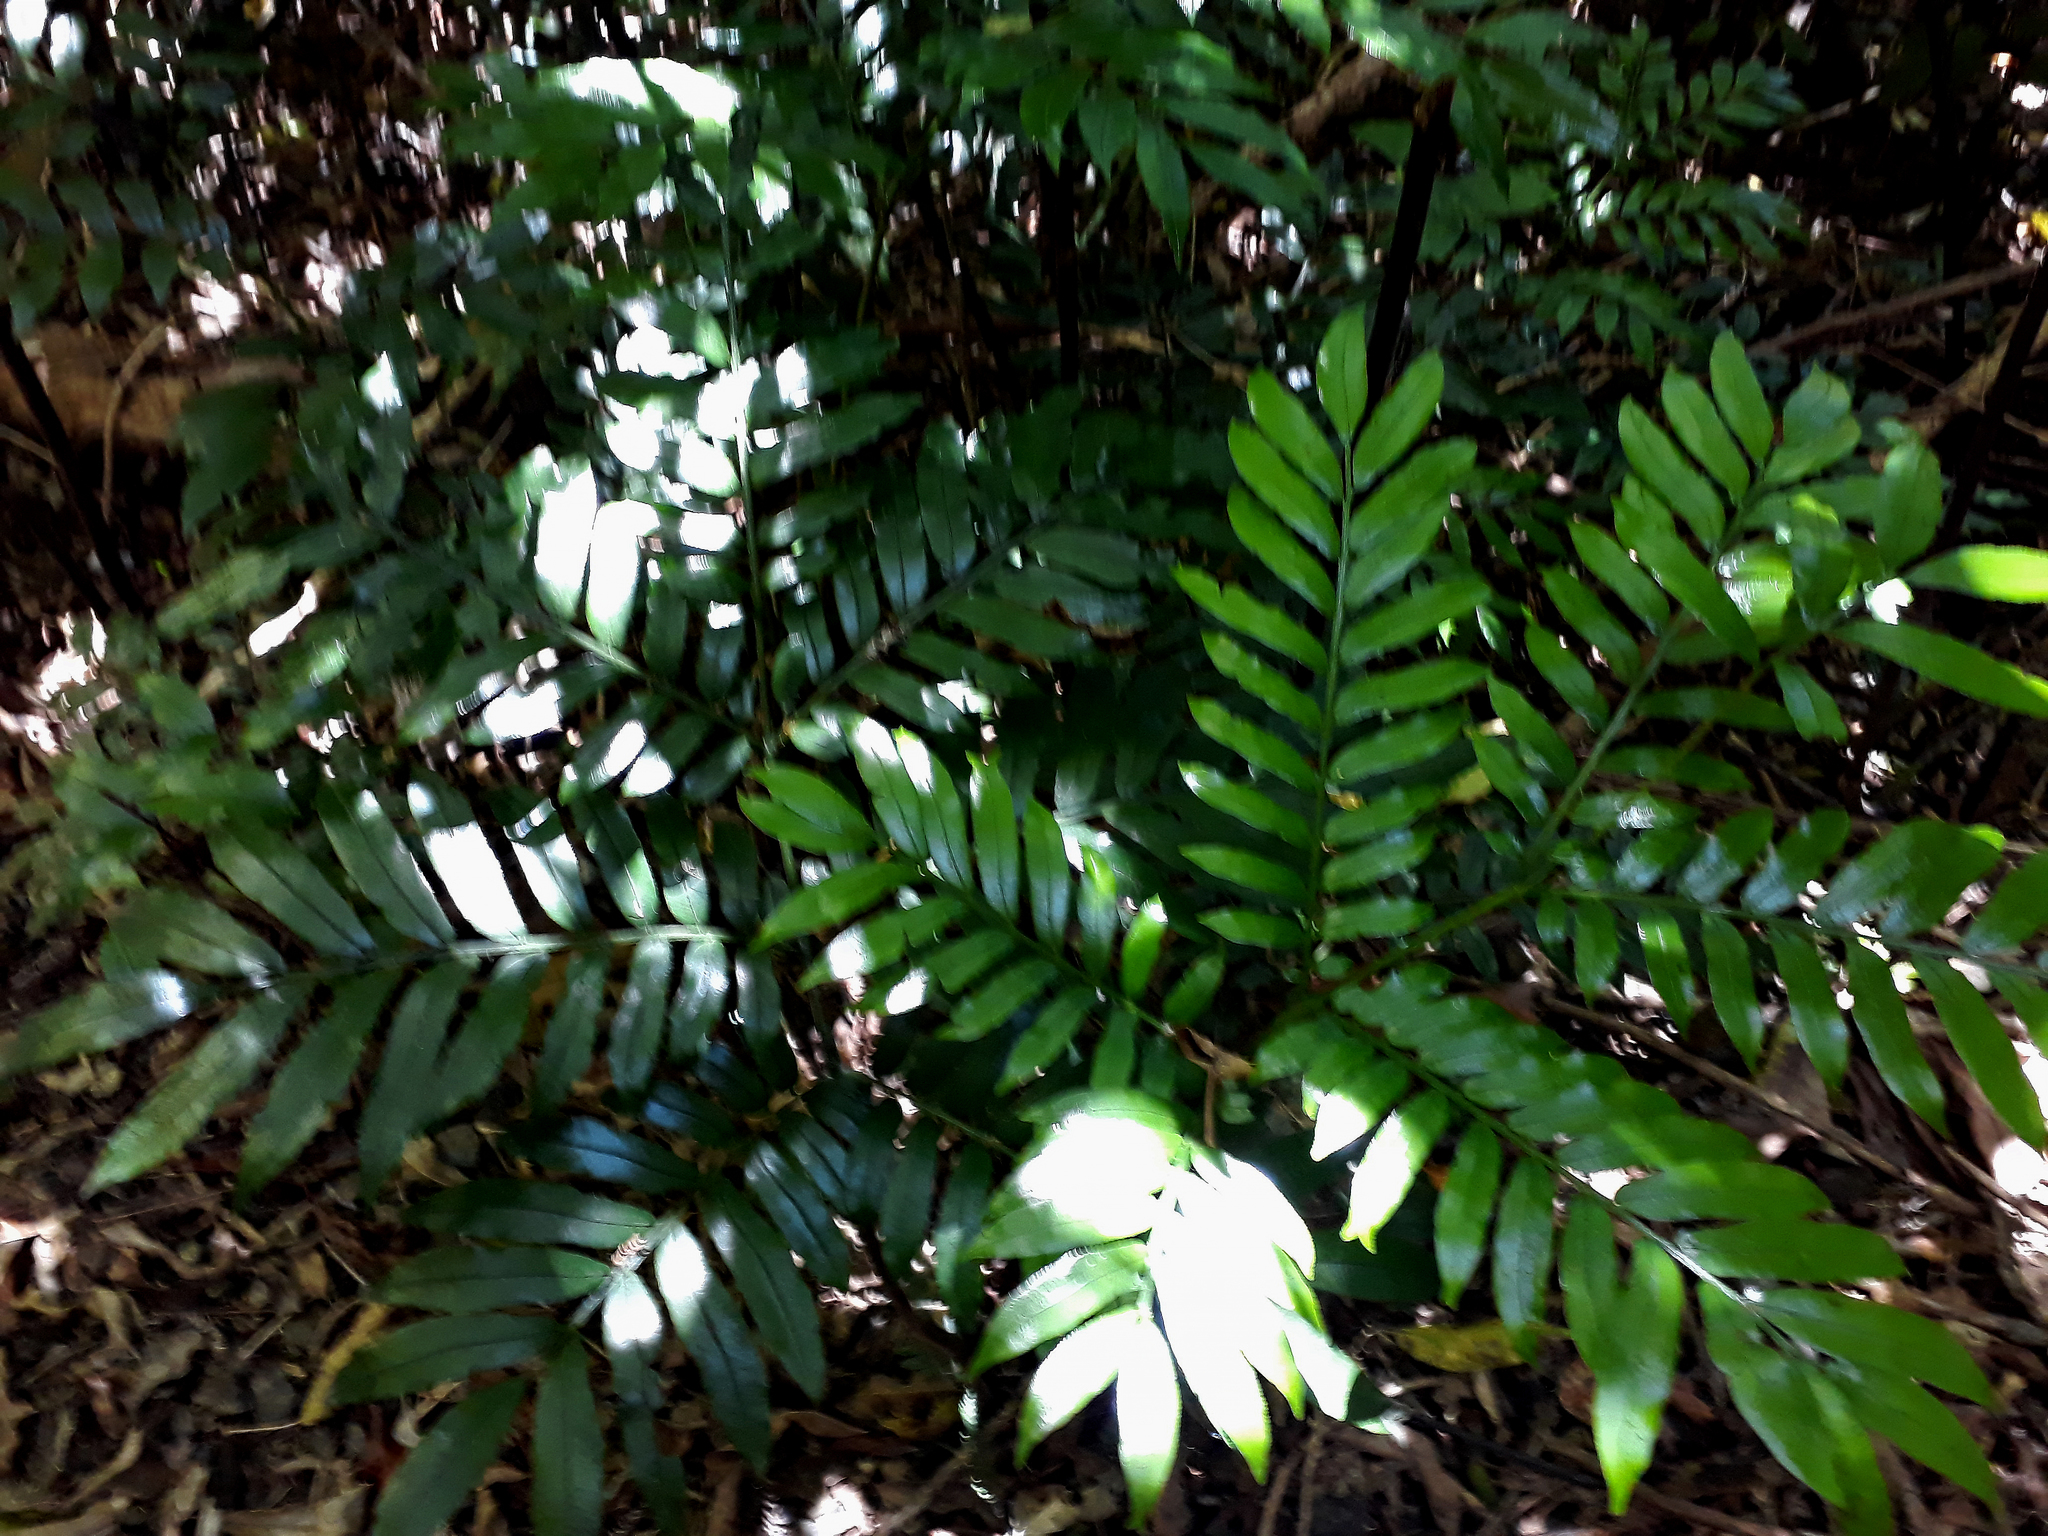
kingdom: Plantae
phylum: Tracheophyta
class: Polypodiopsida
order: Marattiales
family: Marattiaceae
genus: Ptisana
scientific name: Ptisana salicina
